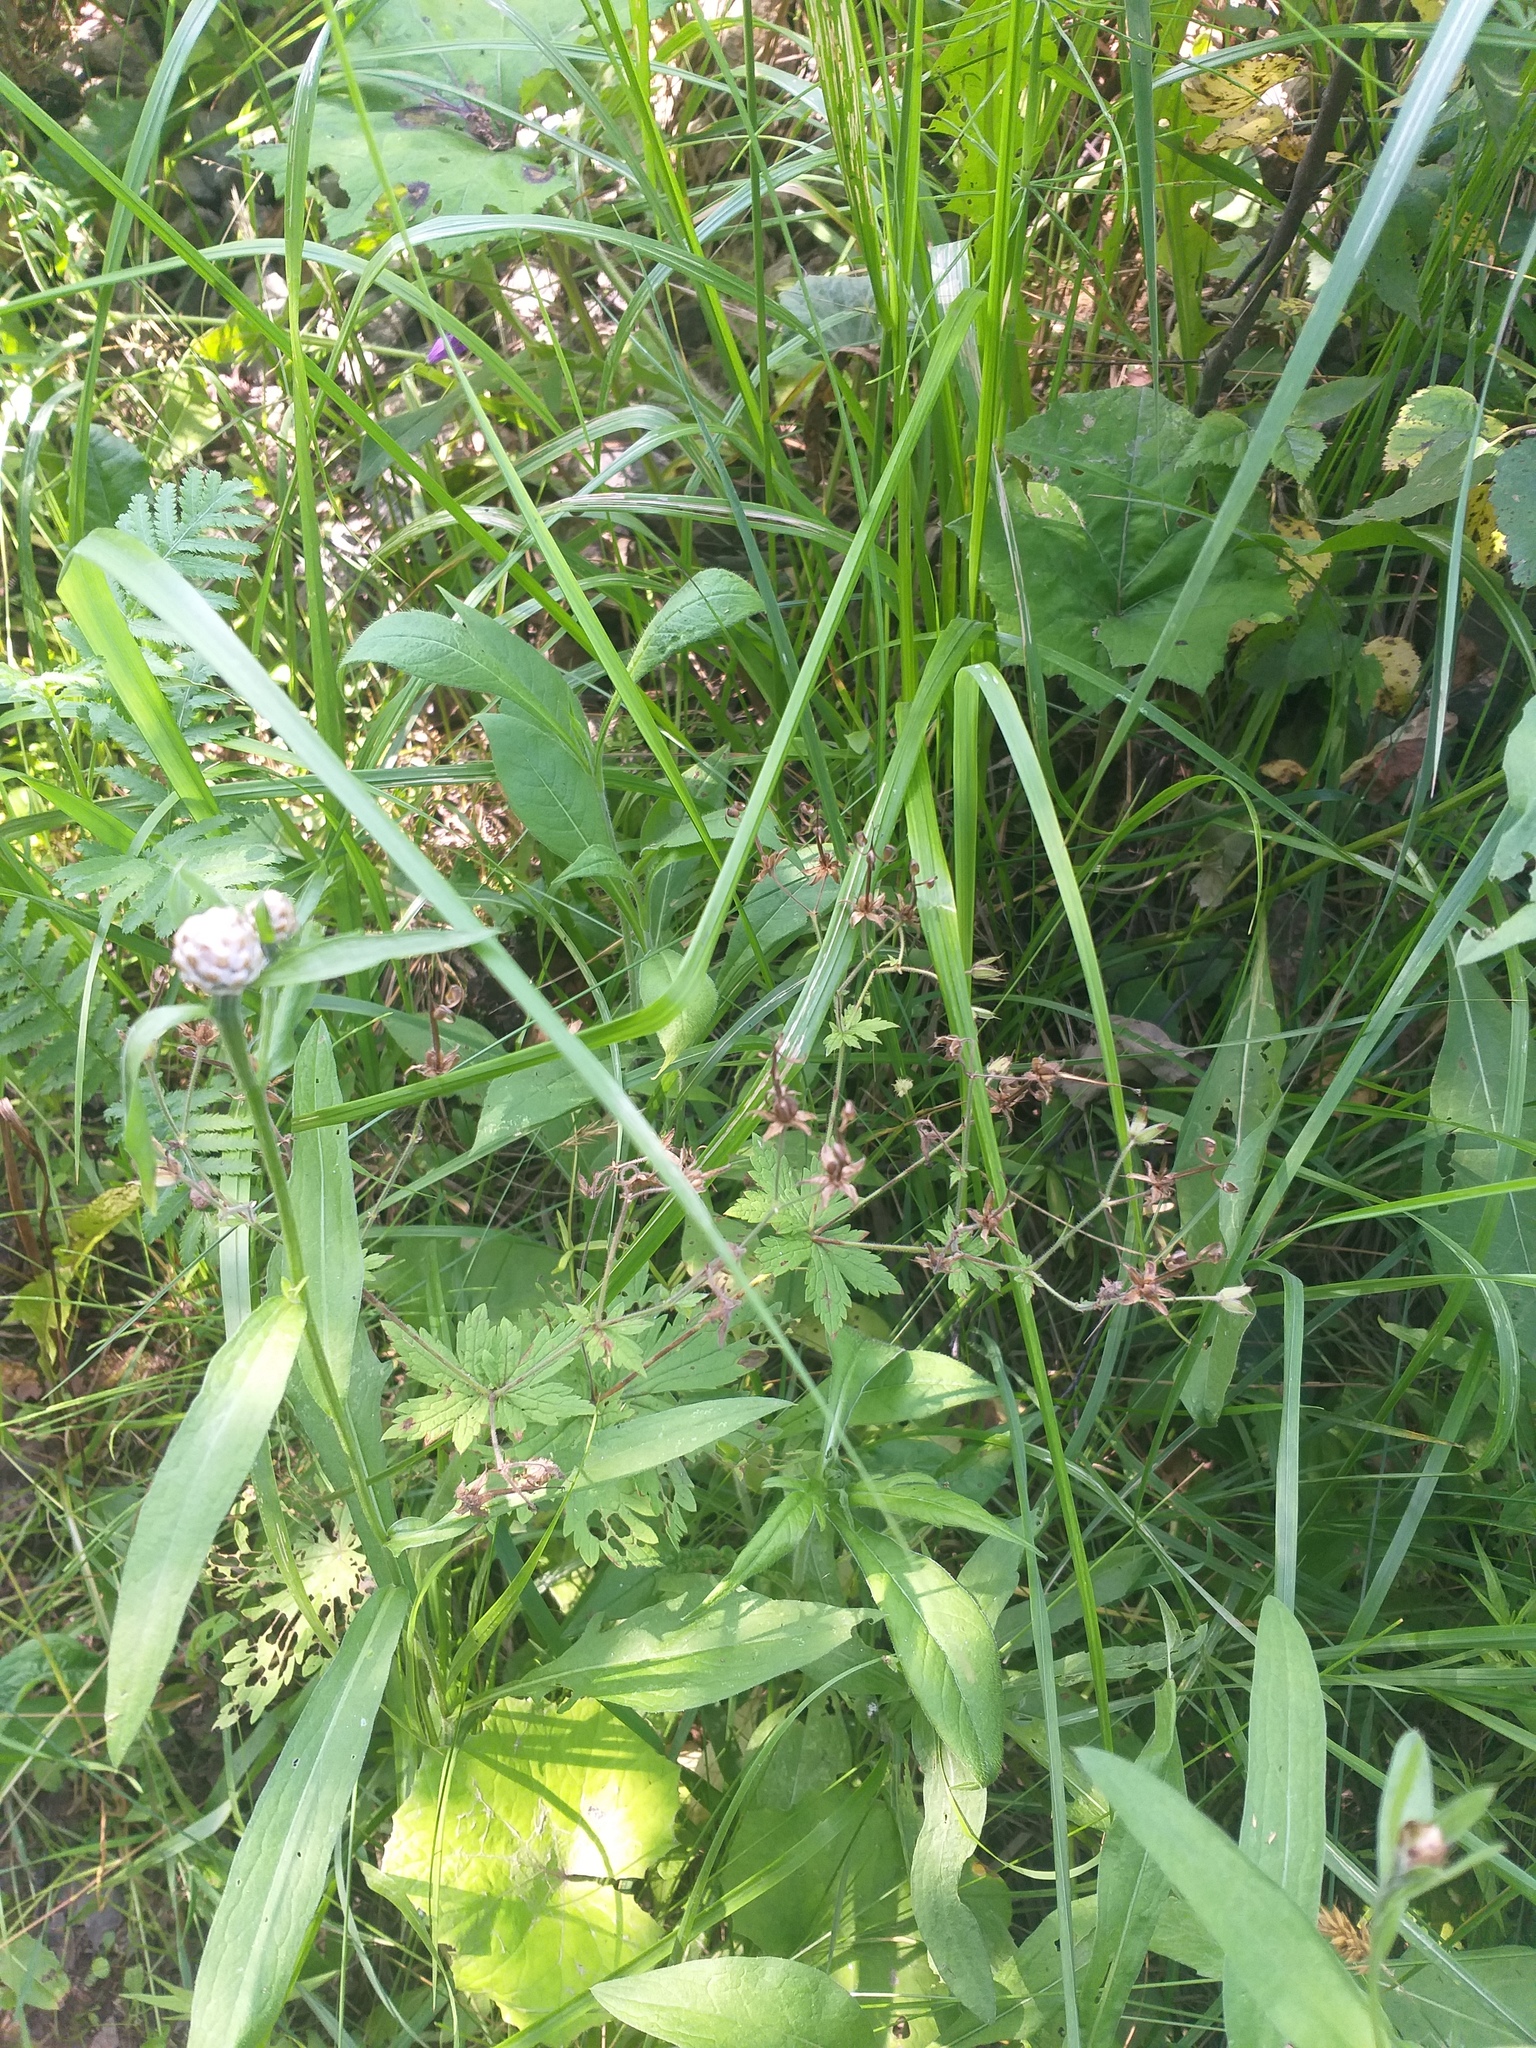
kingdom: Plantae
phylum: Tracheophyta
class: Magnoliopsida
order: Geraniales
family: Geraniaceae
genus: Geranium
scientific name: Geranium sylvaticum
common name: Wood crane's-bill
